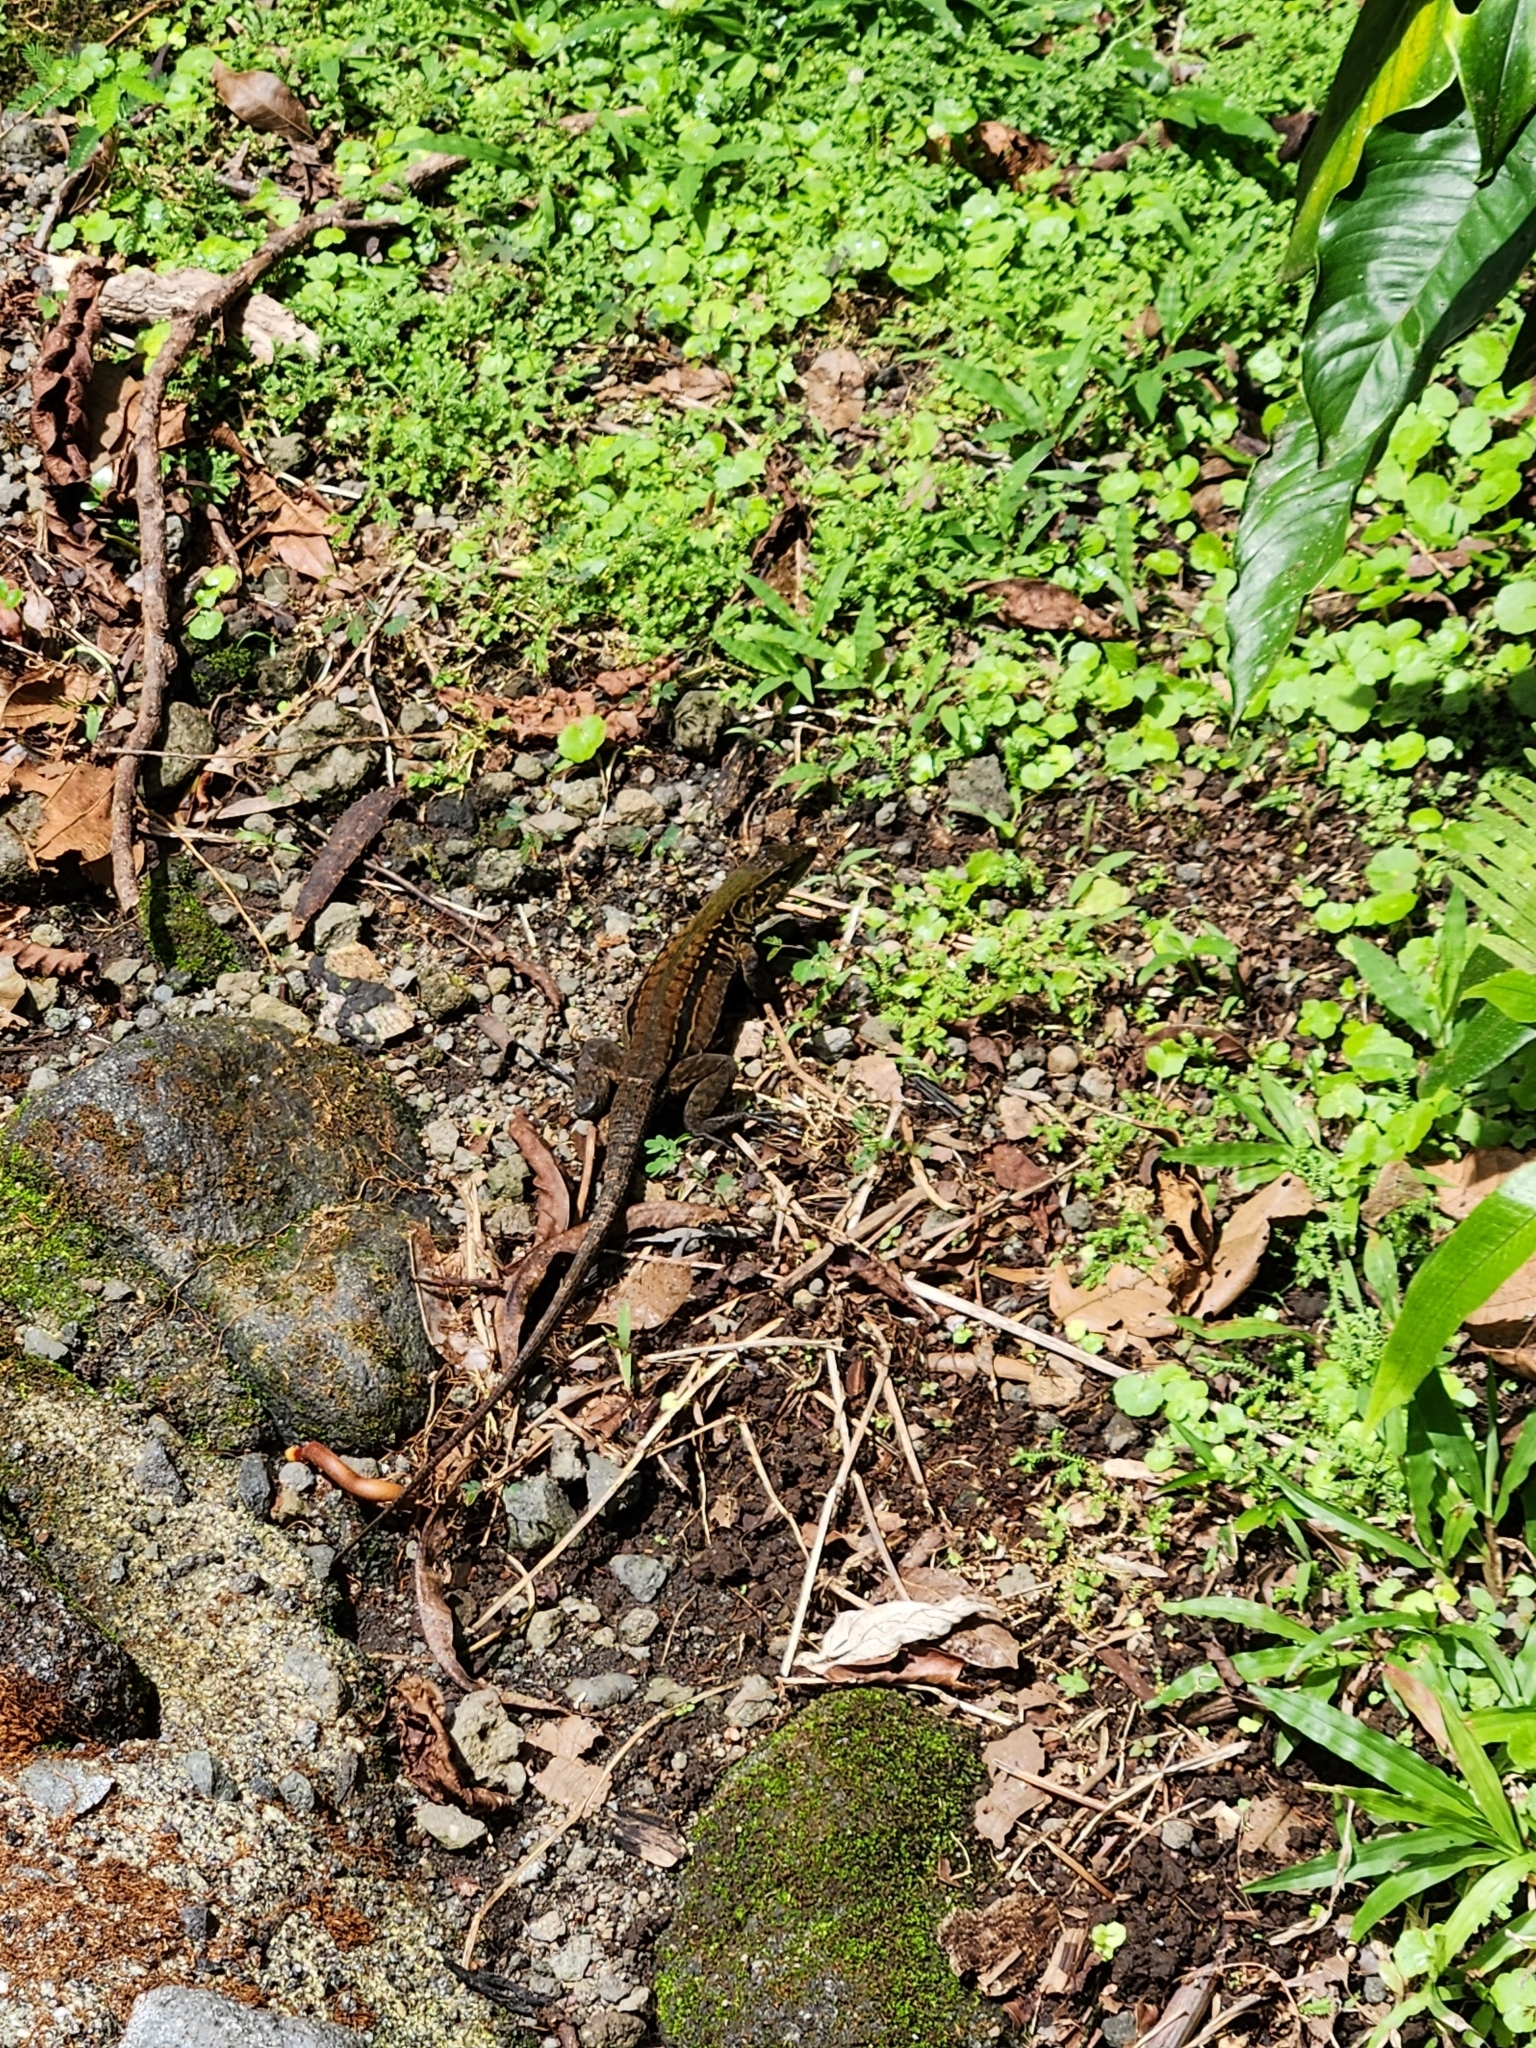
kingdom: Animalia
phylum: Chordata
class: Squamata
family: Teiidae
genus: Holcosus
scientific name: Holcosus festivus
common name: Middle american ameiva
